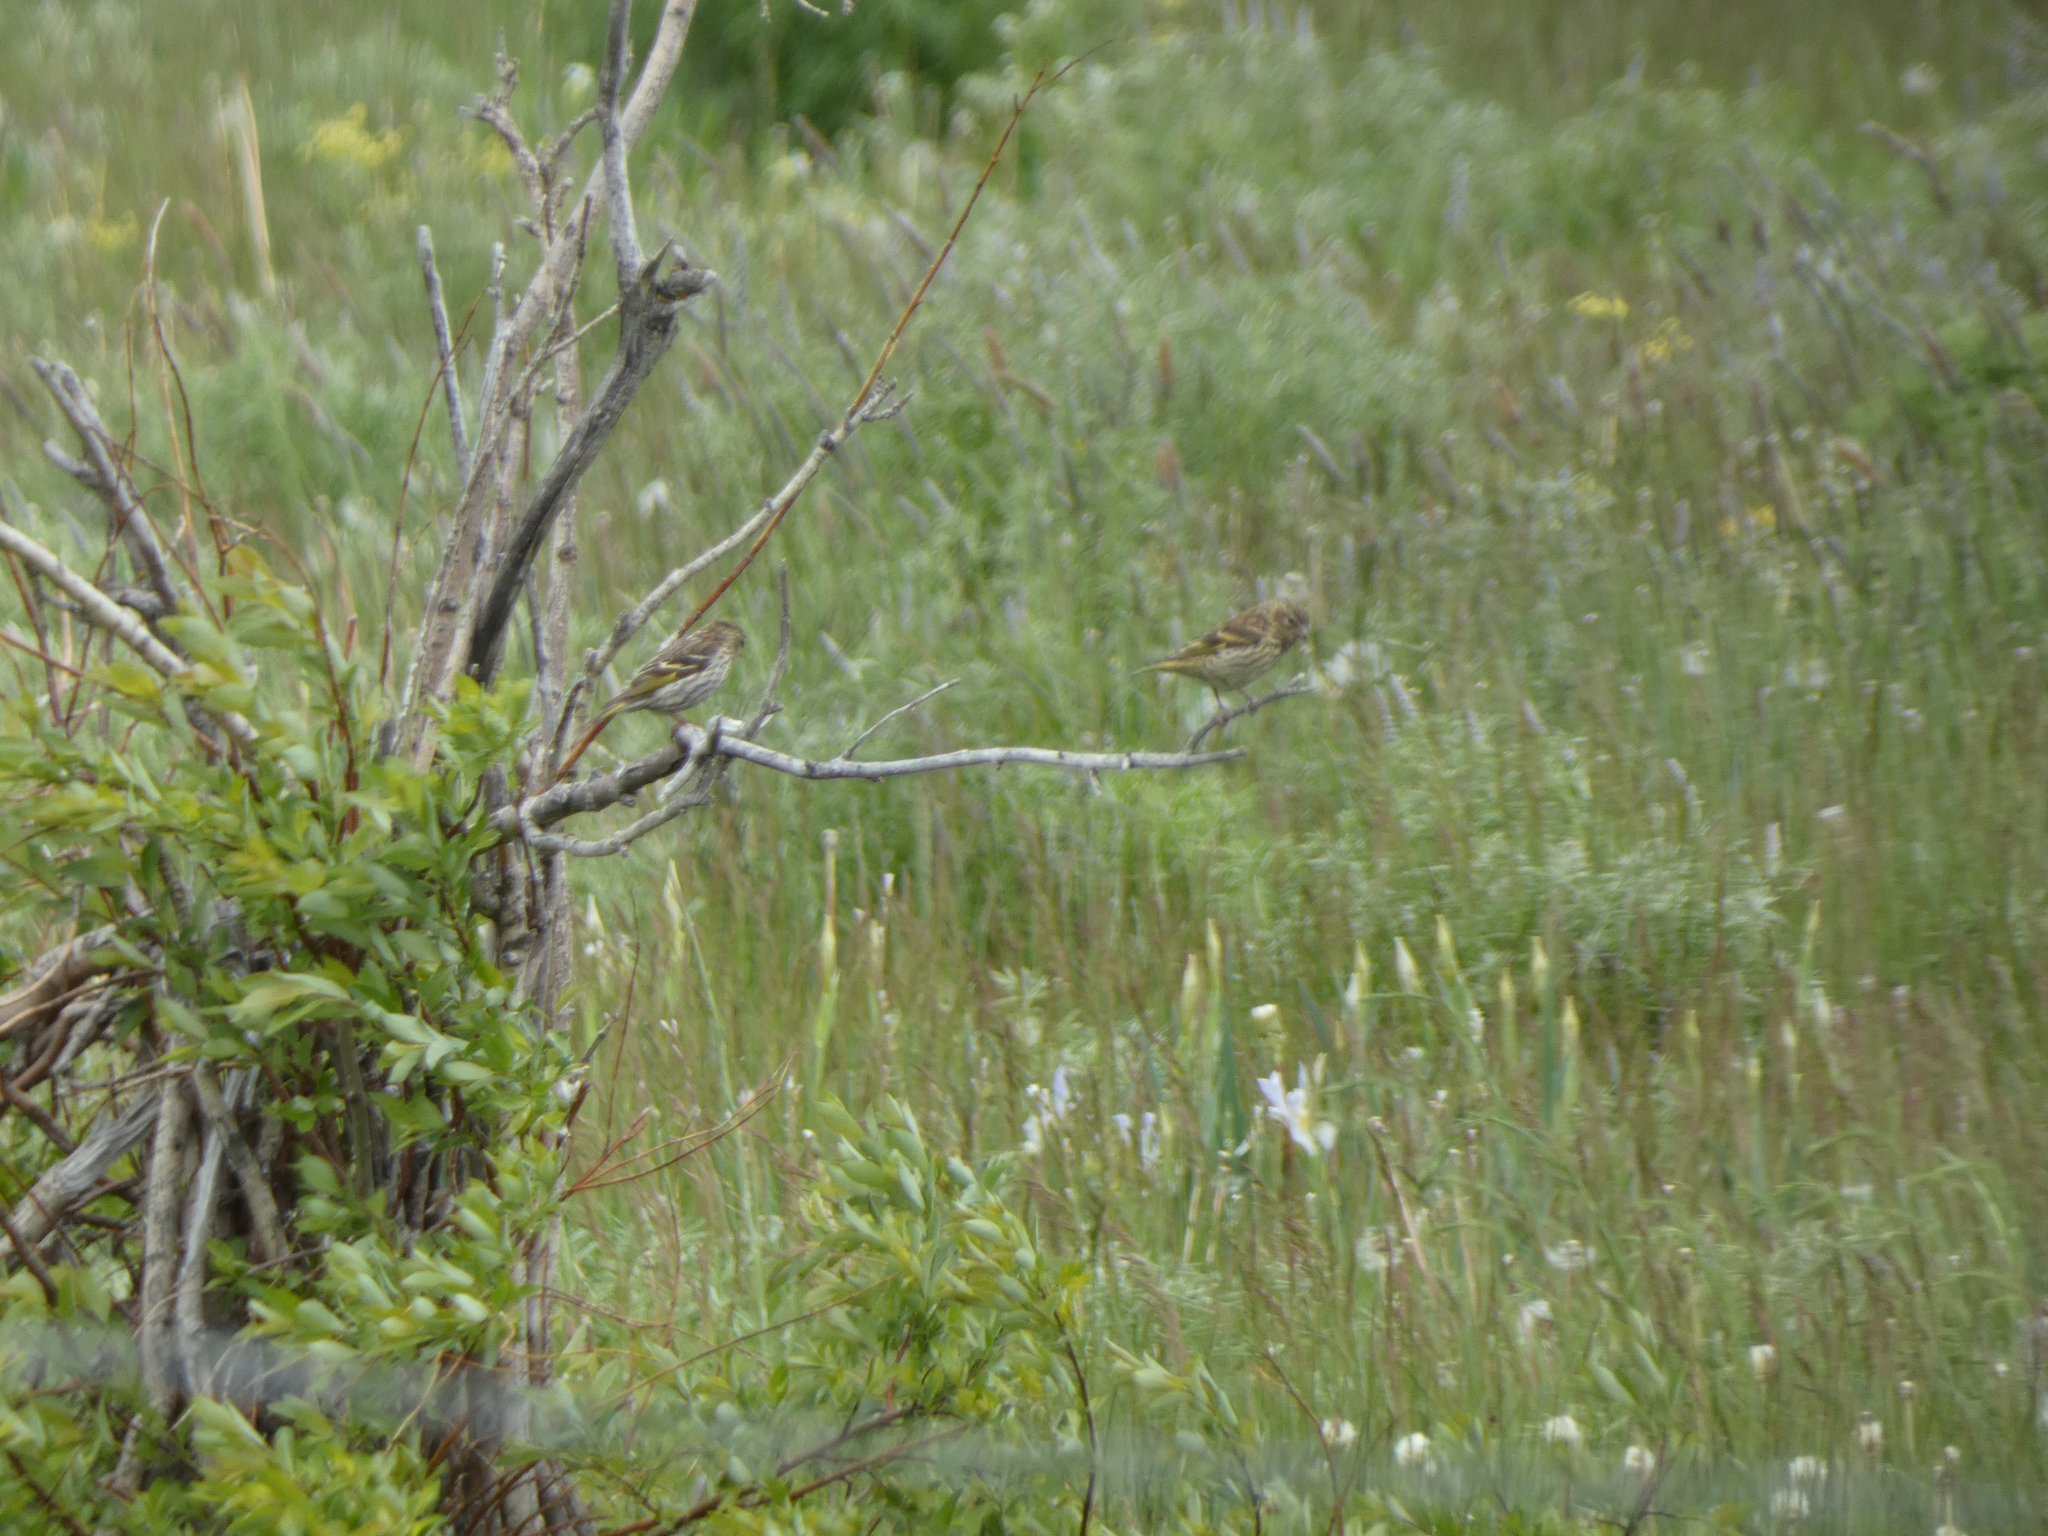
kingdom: Animalia
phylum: Chordata
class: Aves
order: Passeriformes
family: Fringillidae
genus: Spinus
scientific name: Spinus pinus
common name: Pine siskin
